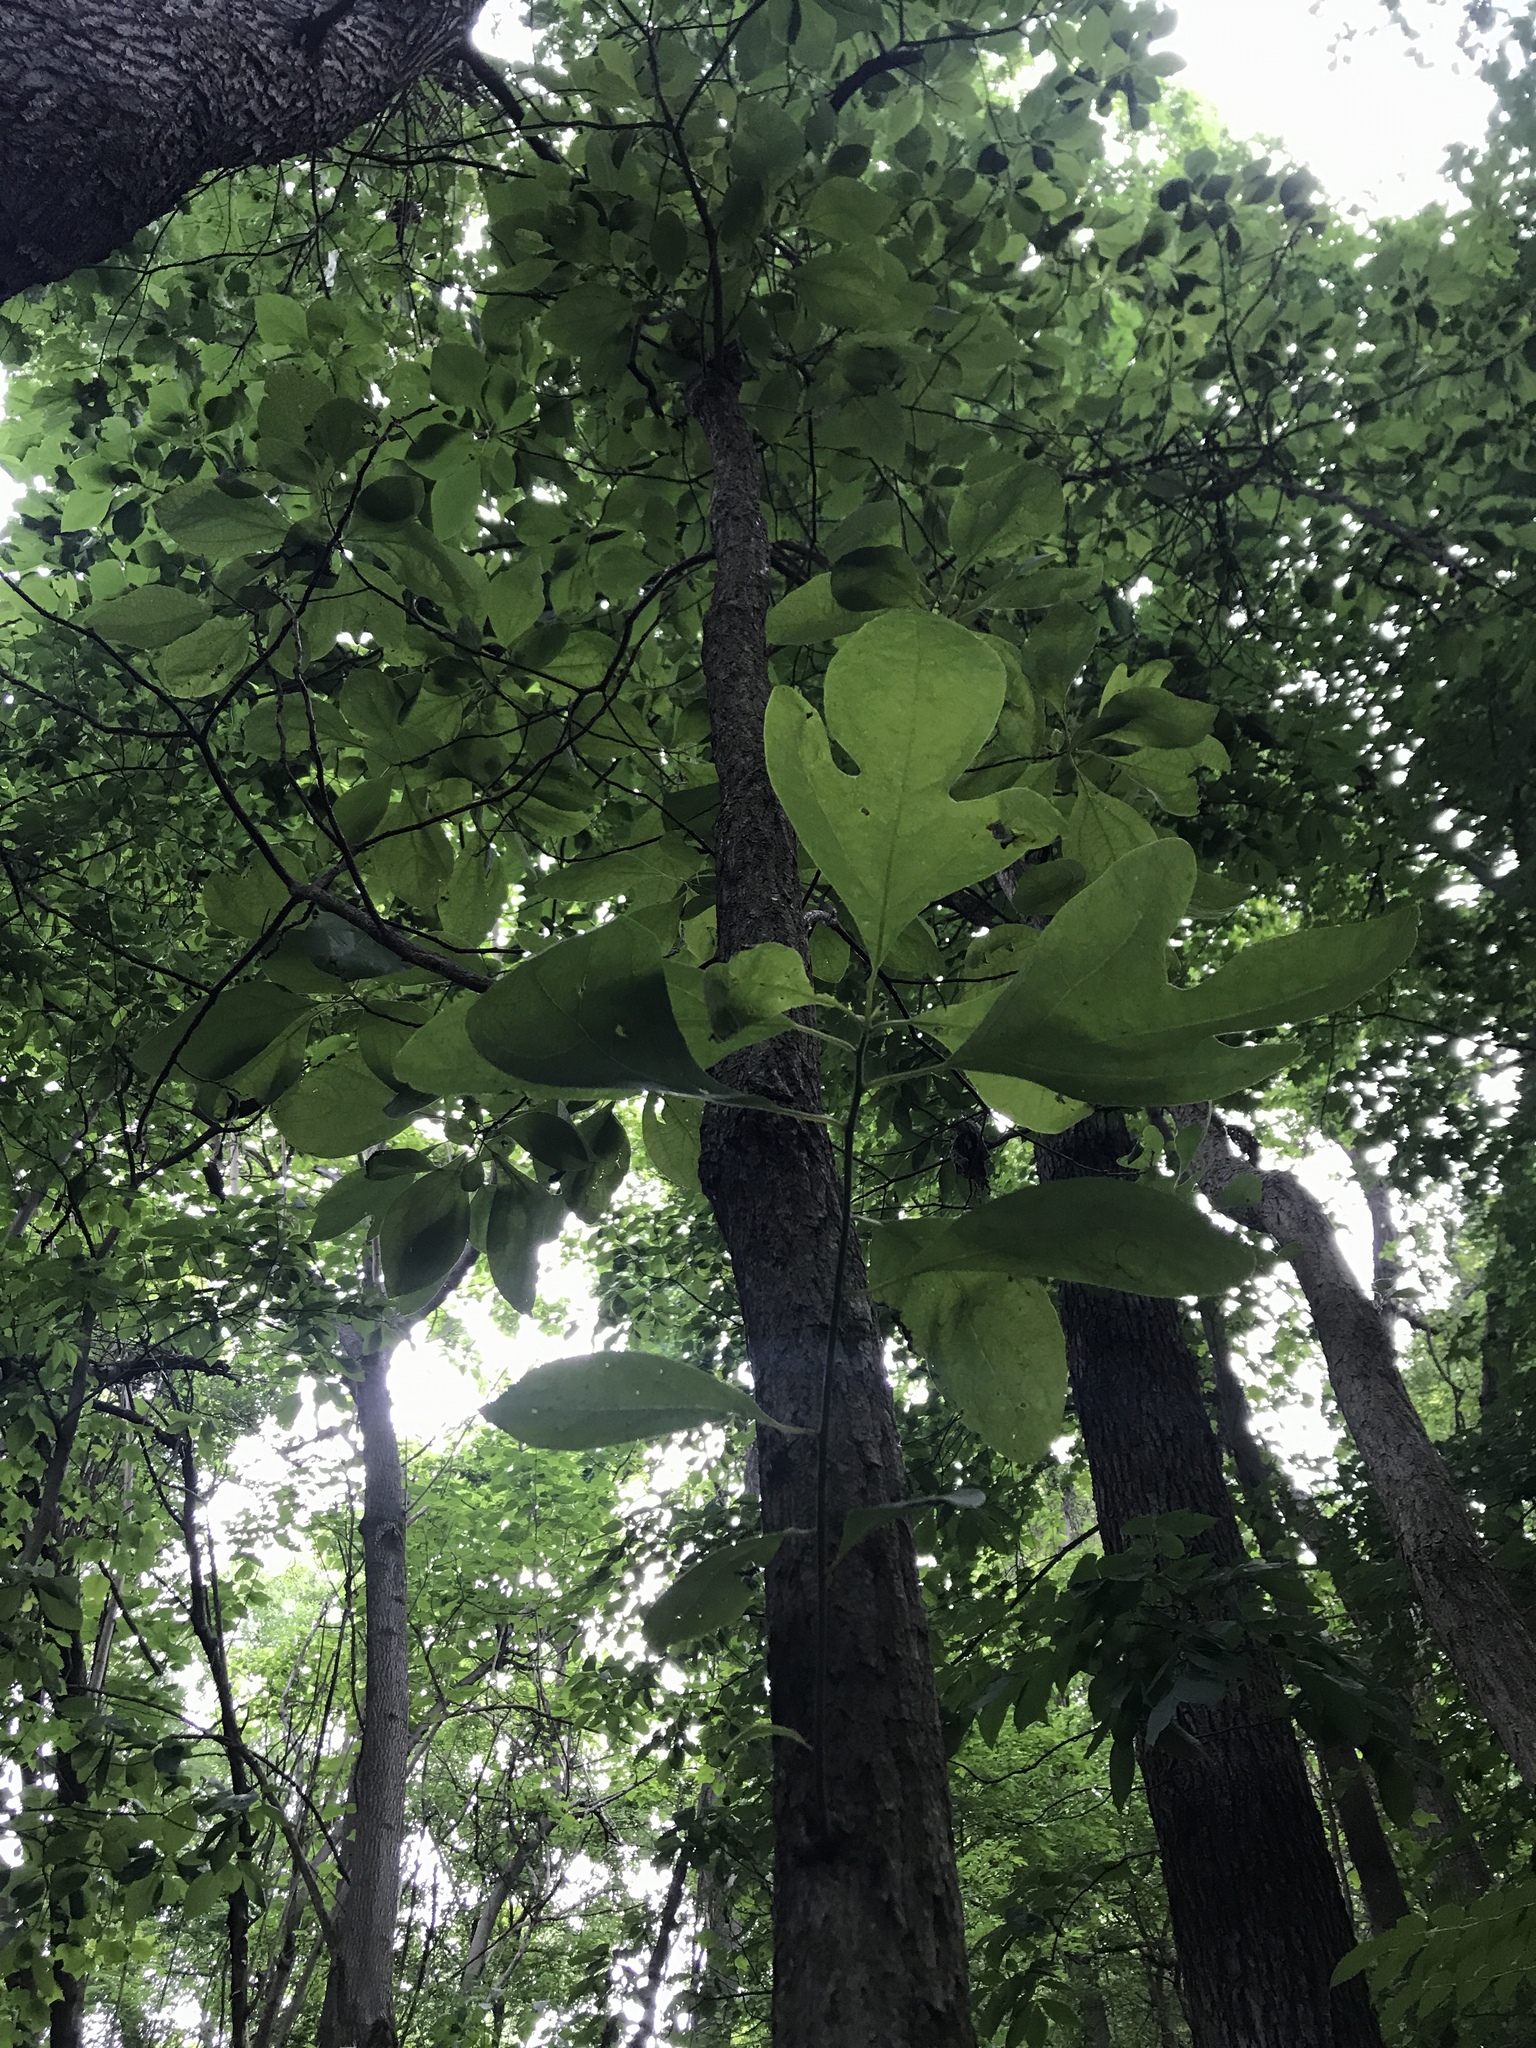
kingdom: Plantae
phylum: Tracheophyta
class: Magnoliopsida
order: Laurales
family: Lauraceae
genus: Sassafras
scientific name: Sassafras albidum
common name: Sassafras
